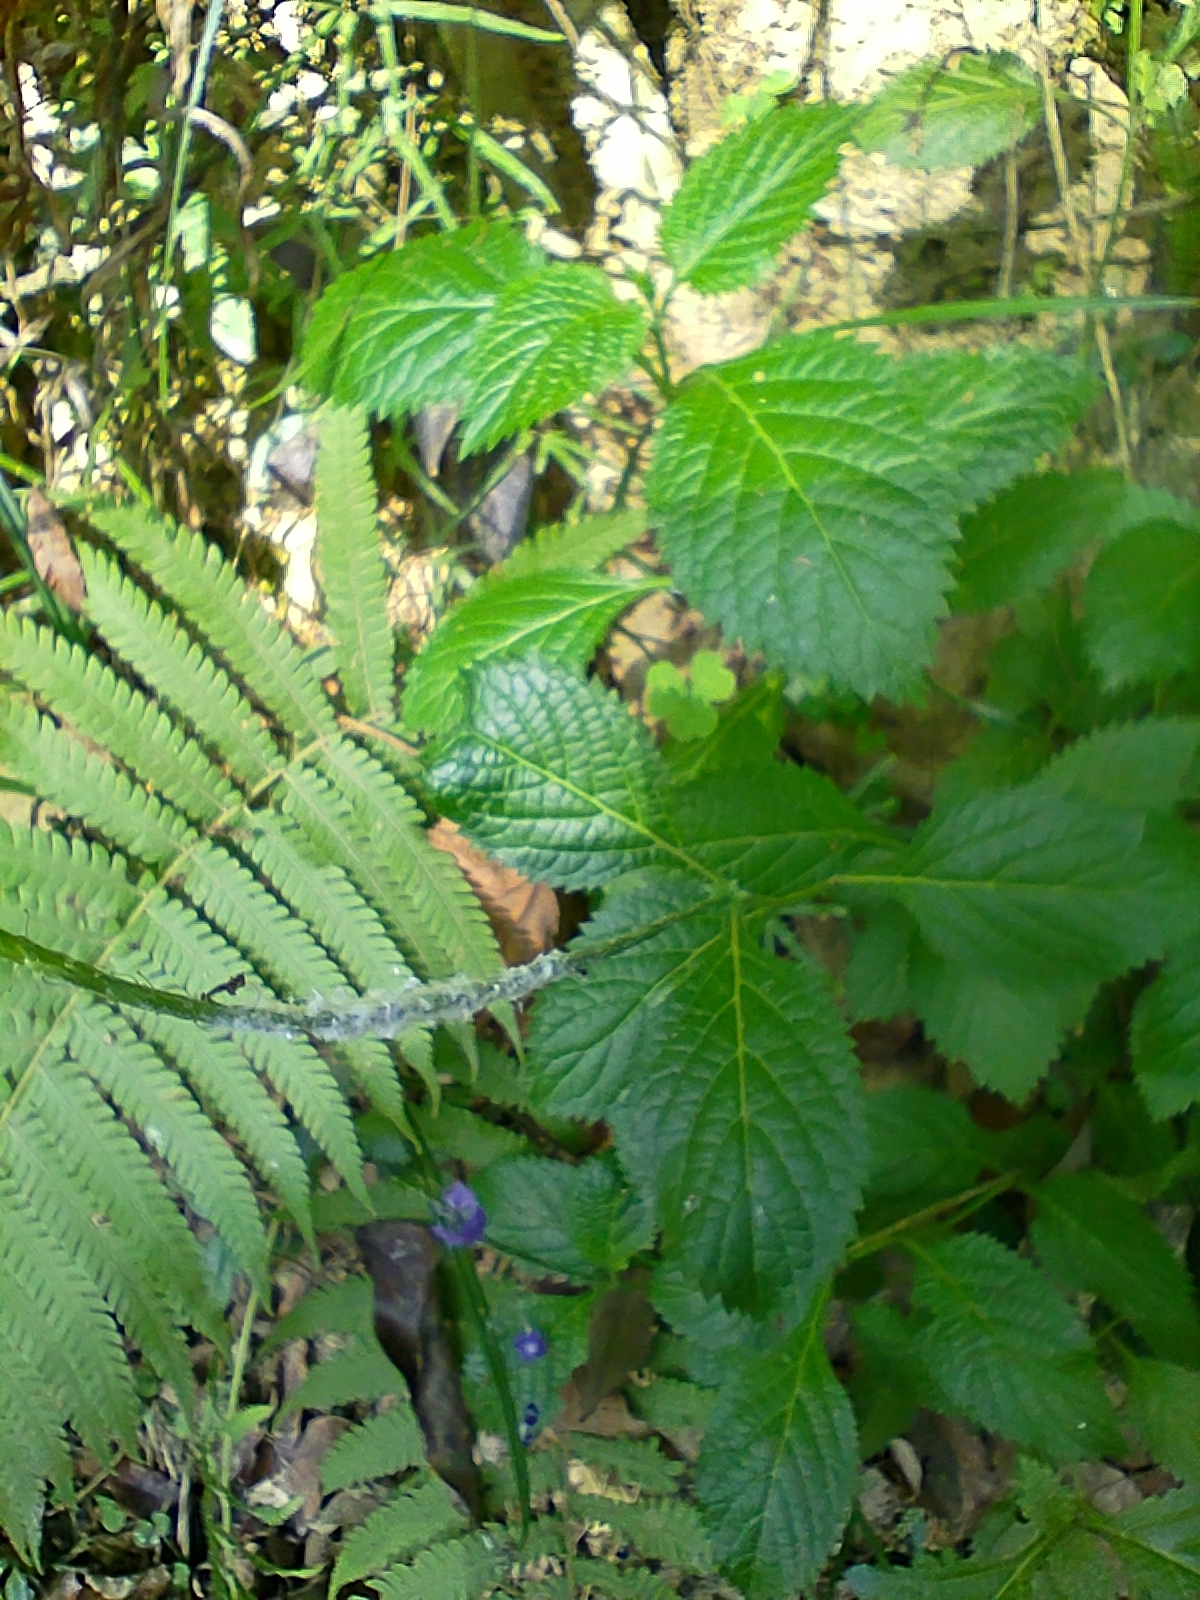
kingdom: Plantae
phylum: Tracheophyta
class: Magnoliopsida
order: Lamiales
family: Verbenaceae
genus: Stachytarpheta
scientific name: Stachytarpheta urticifolia
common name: Nettleleaf velvetberry
